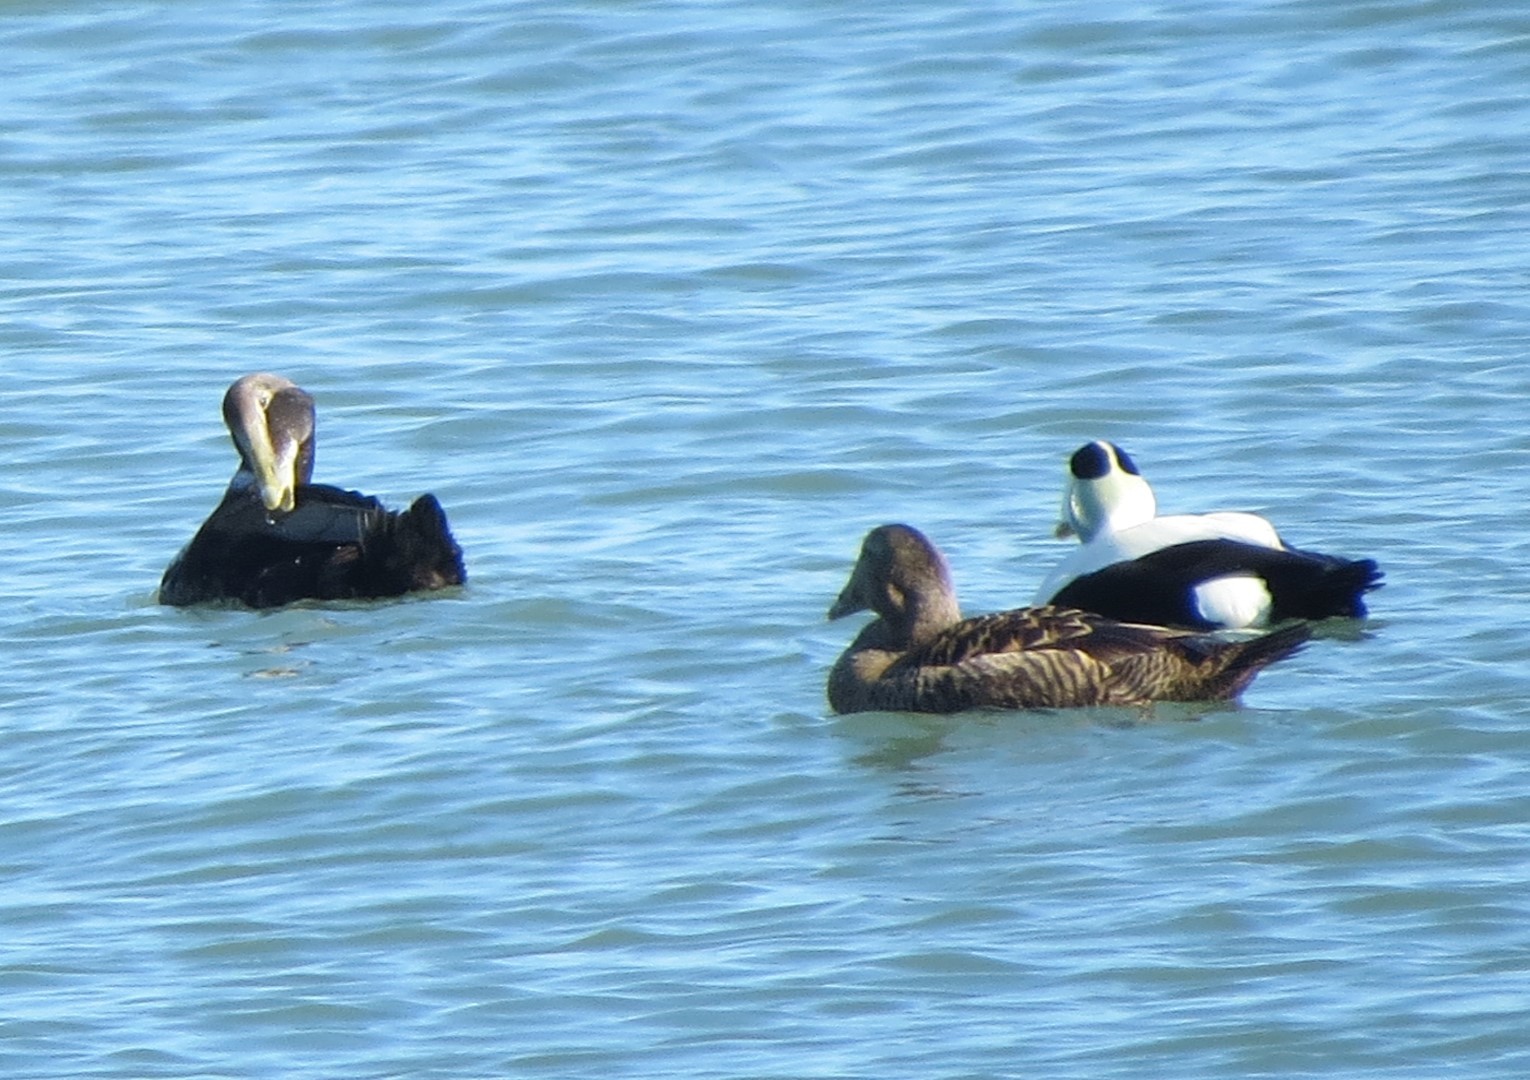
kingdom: Animalia
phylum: Chordata
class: Aves
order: Anseriformes
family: Anatidae
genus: Somateria
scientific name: Somateria mollissima
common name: Common eider
